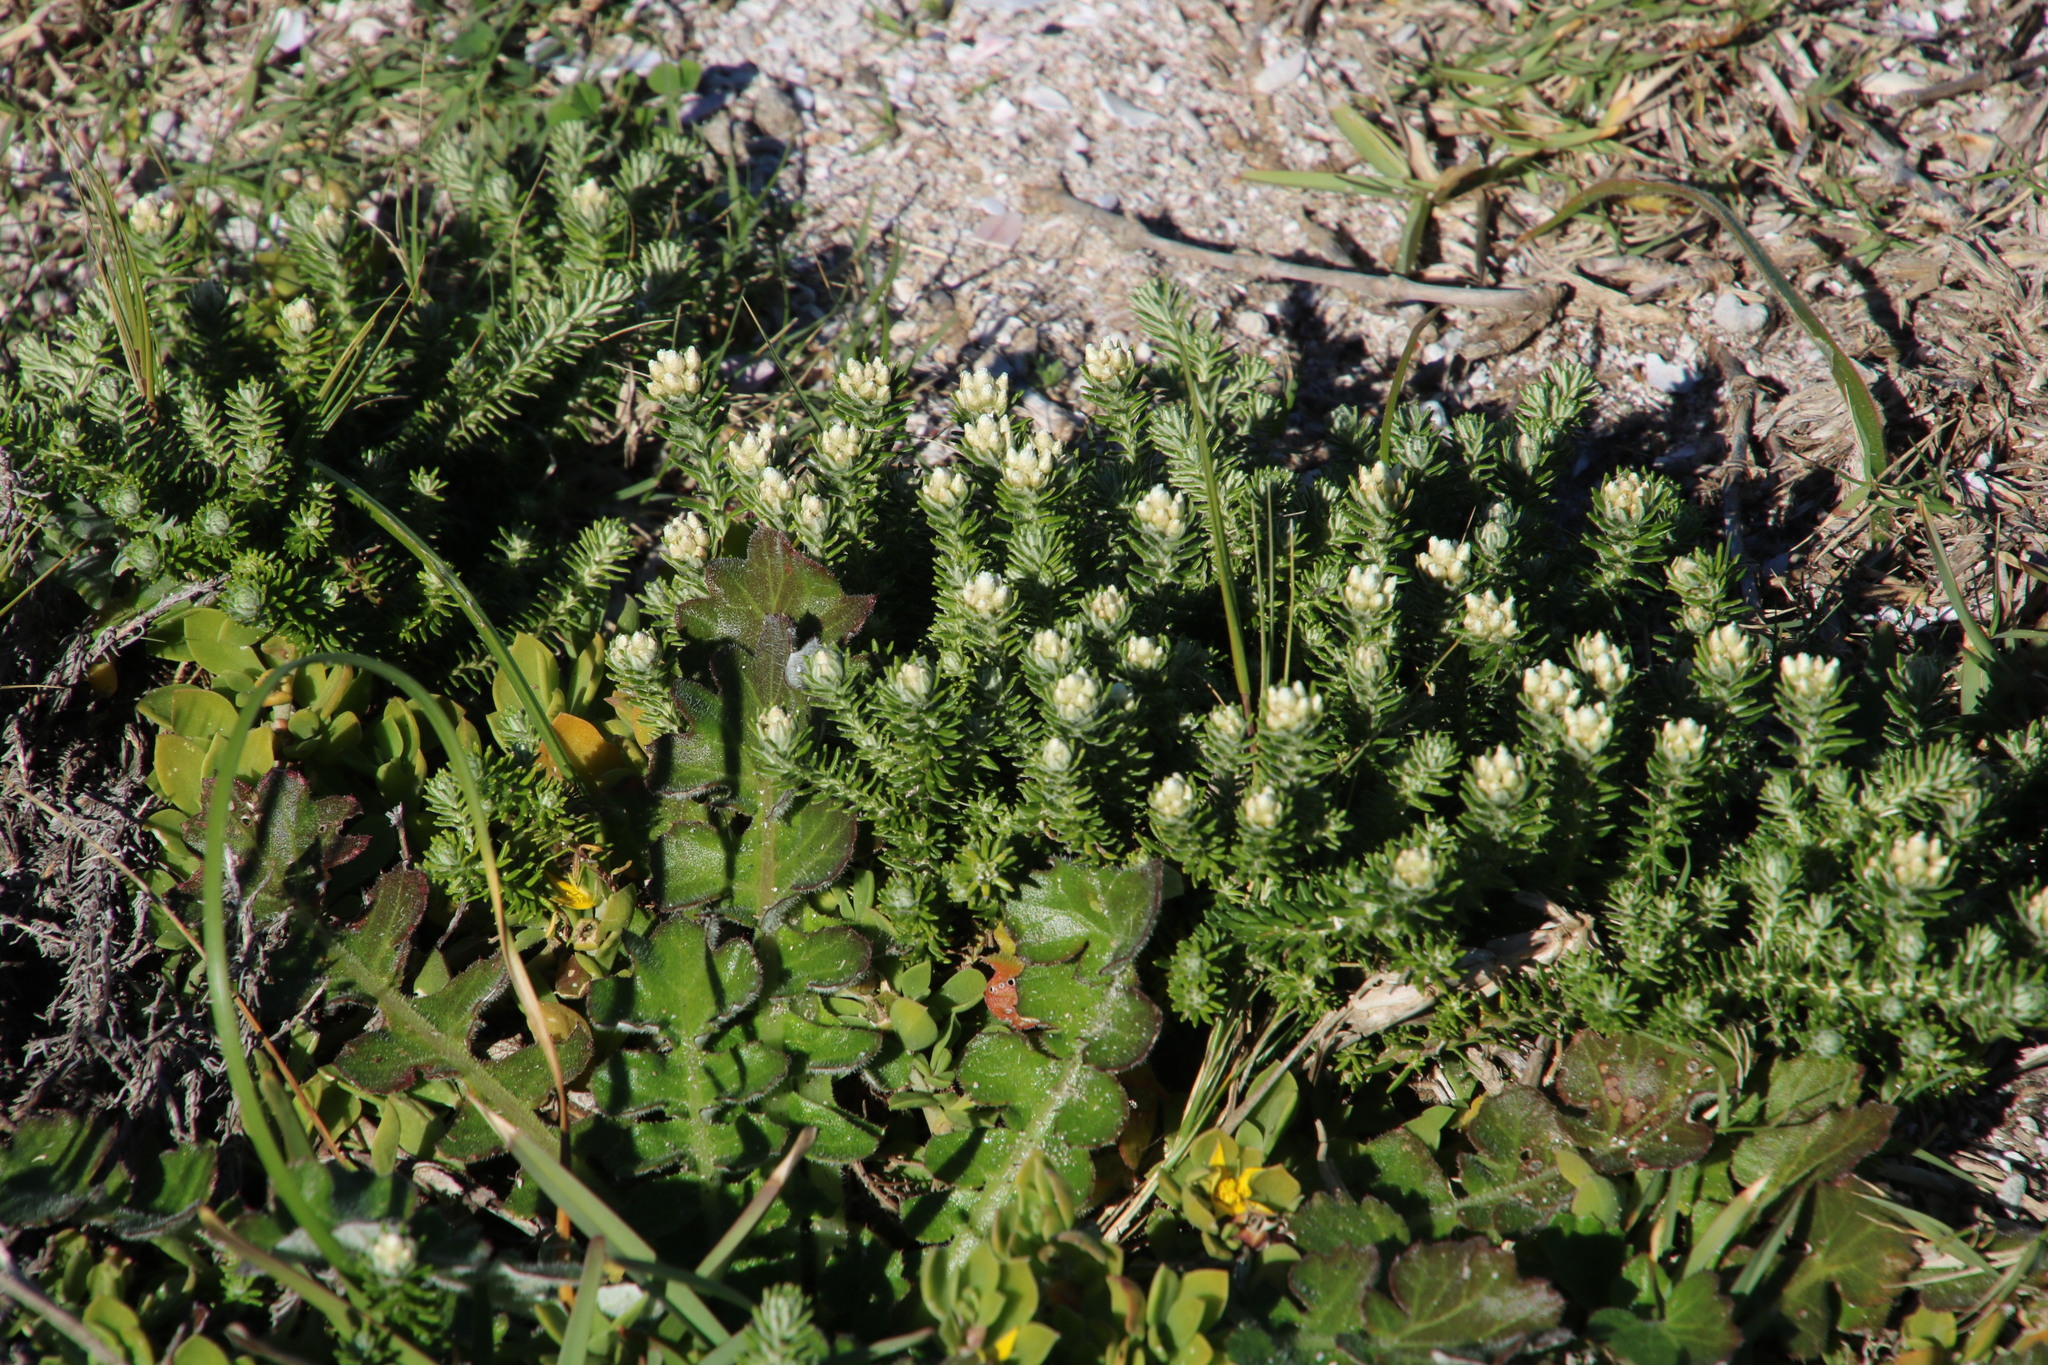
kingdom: Plantae
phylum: Tracheophyta
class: Magnoliopsida
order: Asterales
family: Asteraceae
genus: Helichrysum
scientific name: Helichrysum teretifolium
